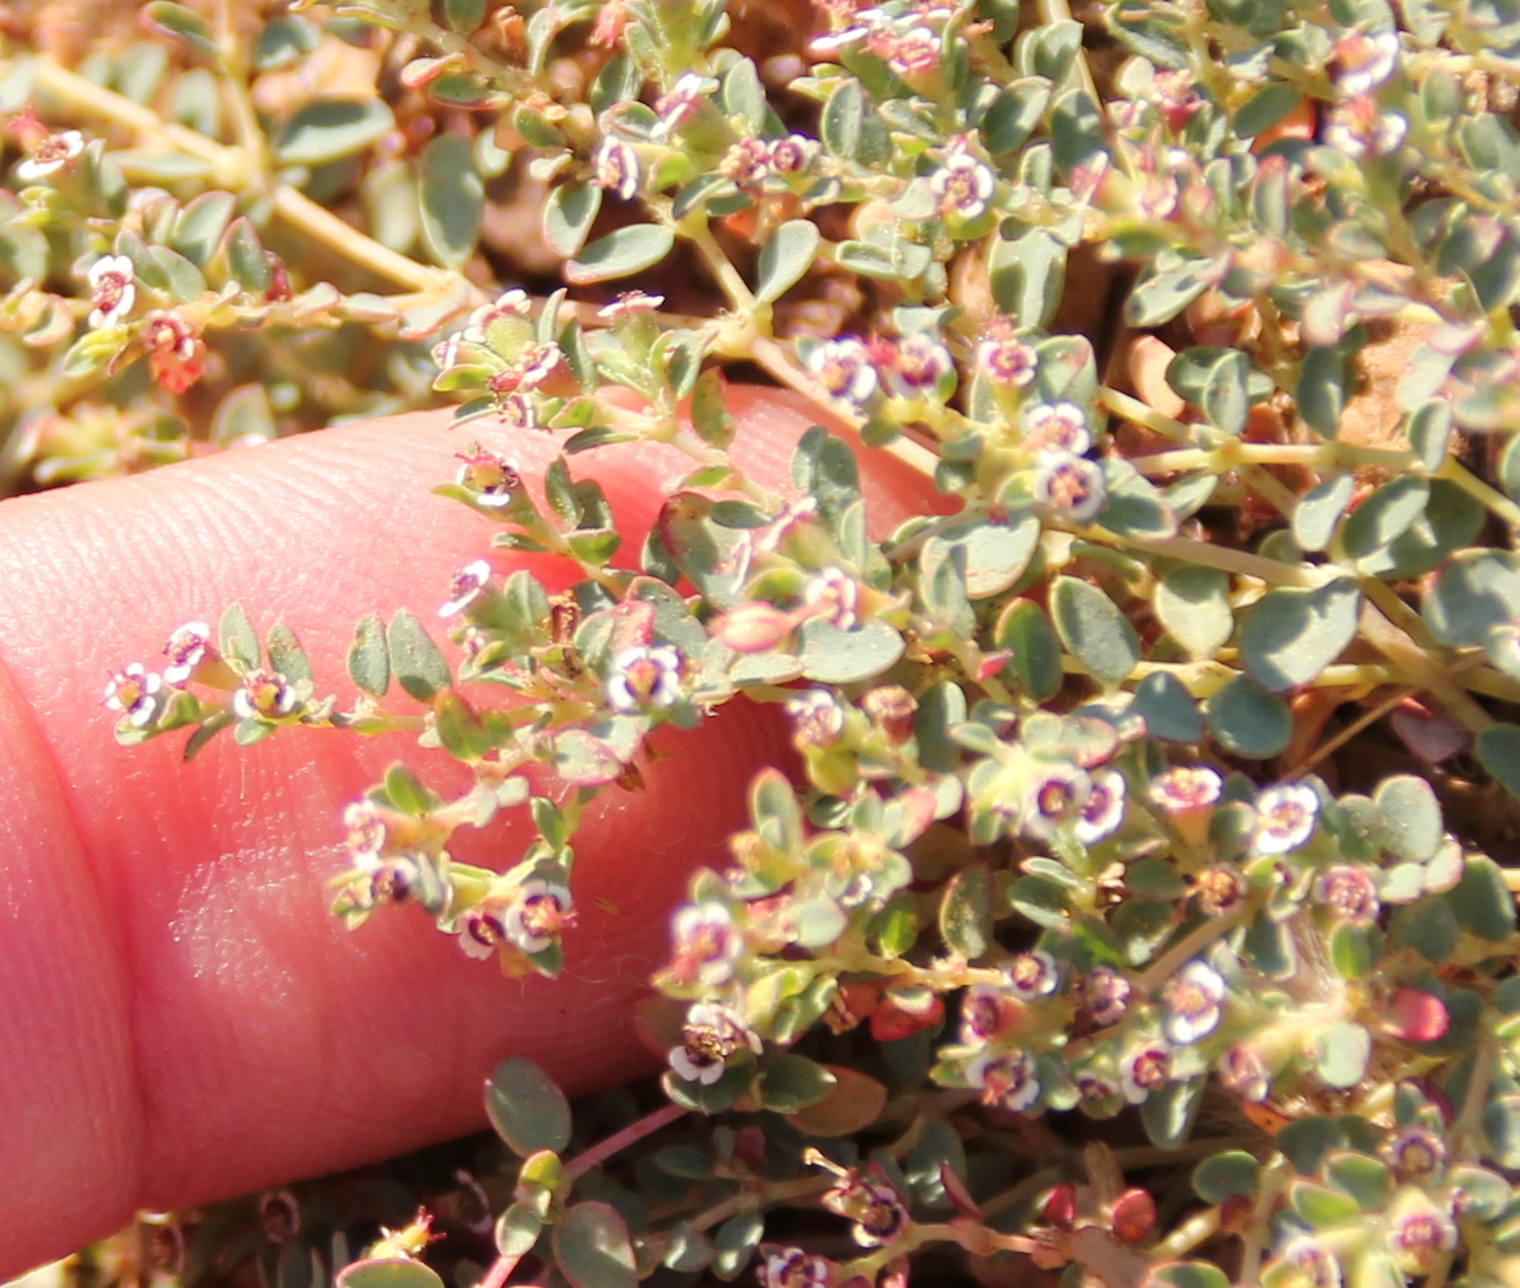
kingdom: Plantae
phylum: Tracheophyta
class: Magnoliopsida
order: Malpighiales
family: Euphorbiaceae
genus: Euphorbia
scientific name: Euphorbia polycarpa
